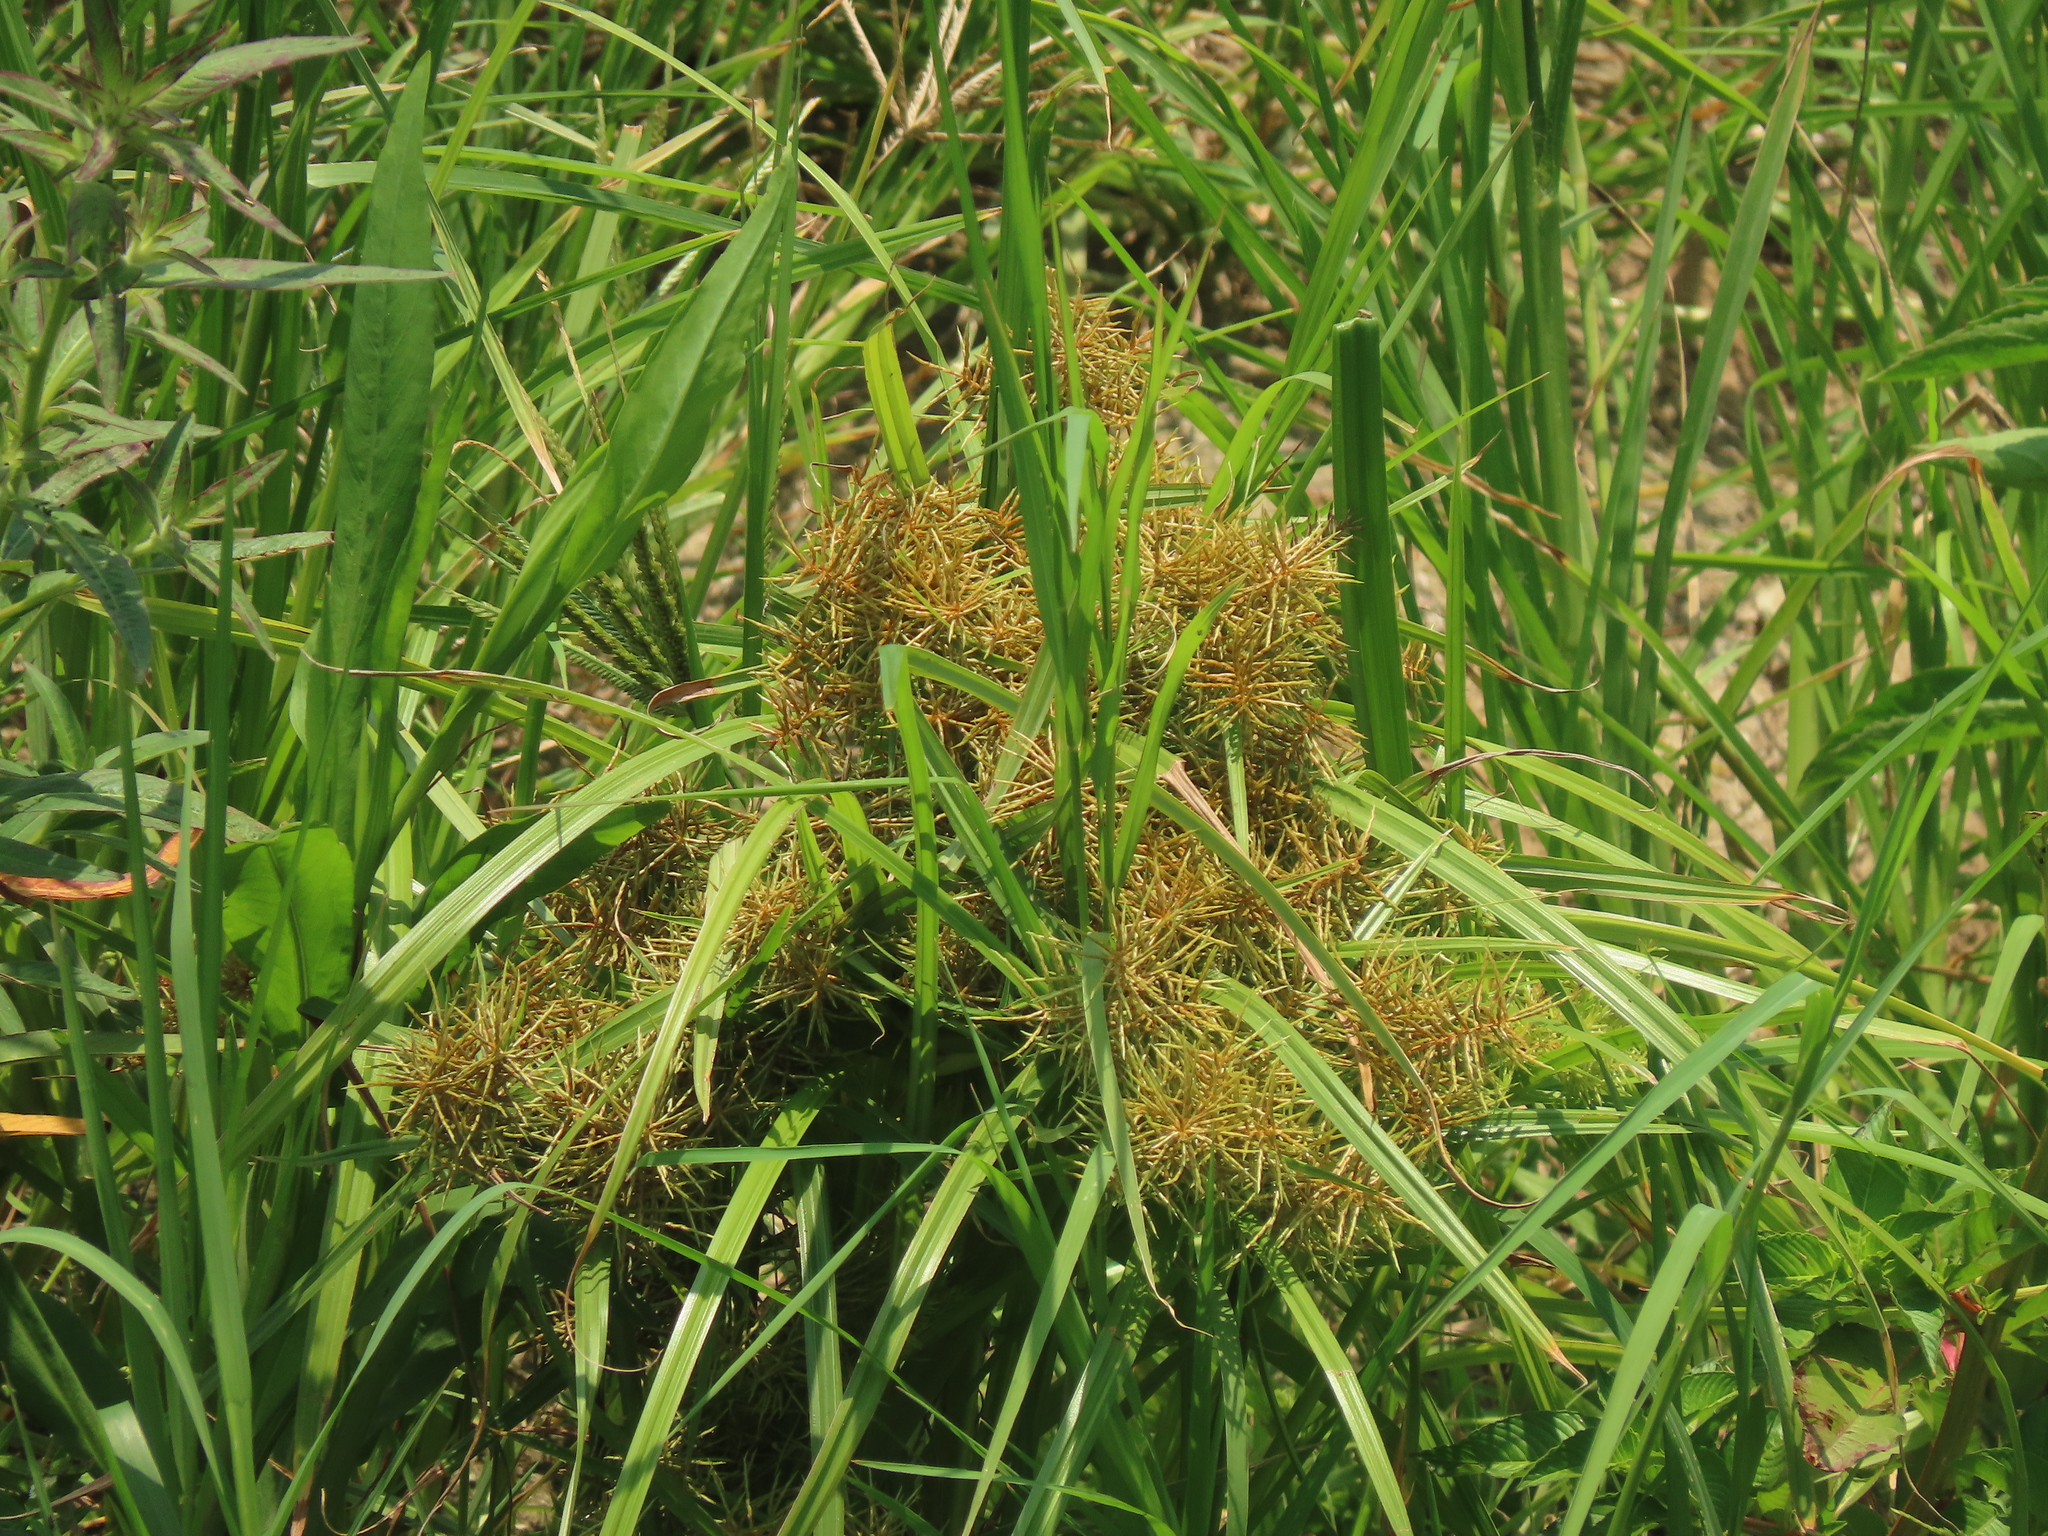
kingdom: Plantae
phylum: Tracheophyta
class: Liliopsida
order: Poales
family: Cyperaceae
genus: Cyperus
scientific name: Cyperus odoratus
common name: Fragrant flatsedge
